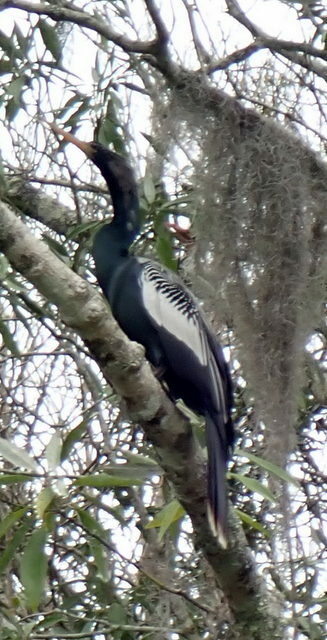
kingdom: Animalia
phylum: Chordata
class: Aves
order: Suliformes
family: Anhingidae
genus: Anhinga
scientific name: Anhinga anhinga
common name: Anhinga
